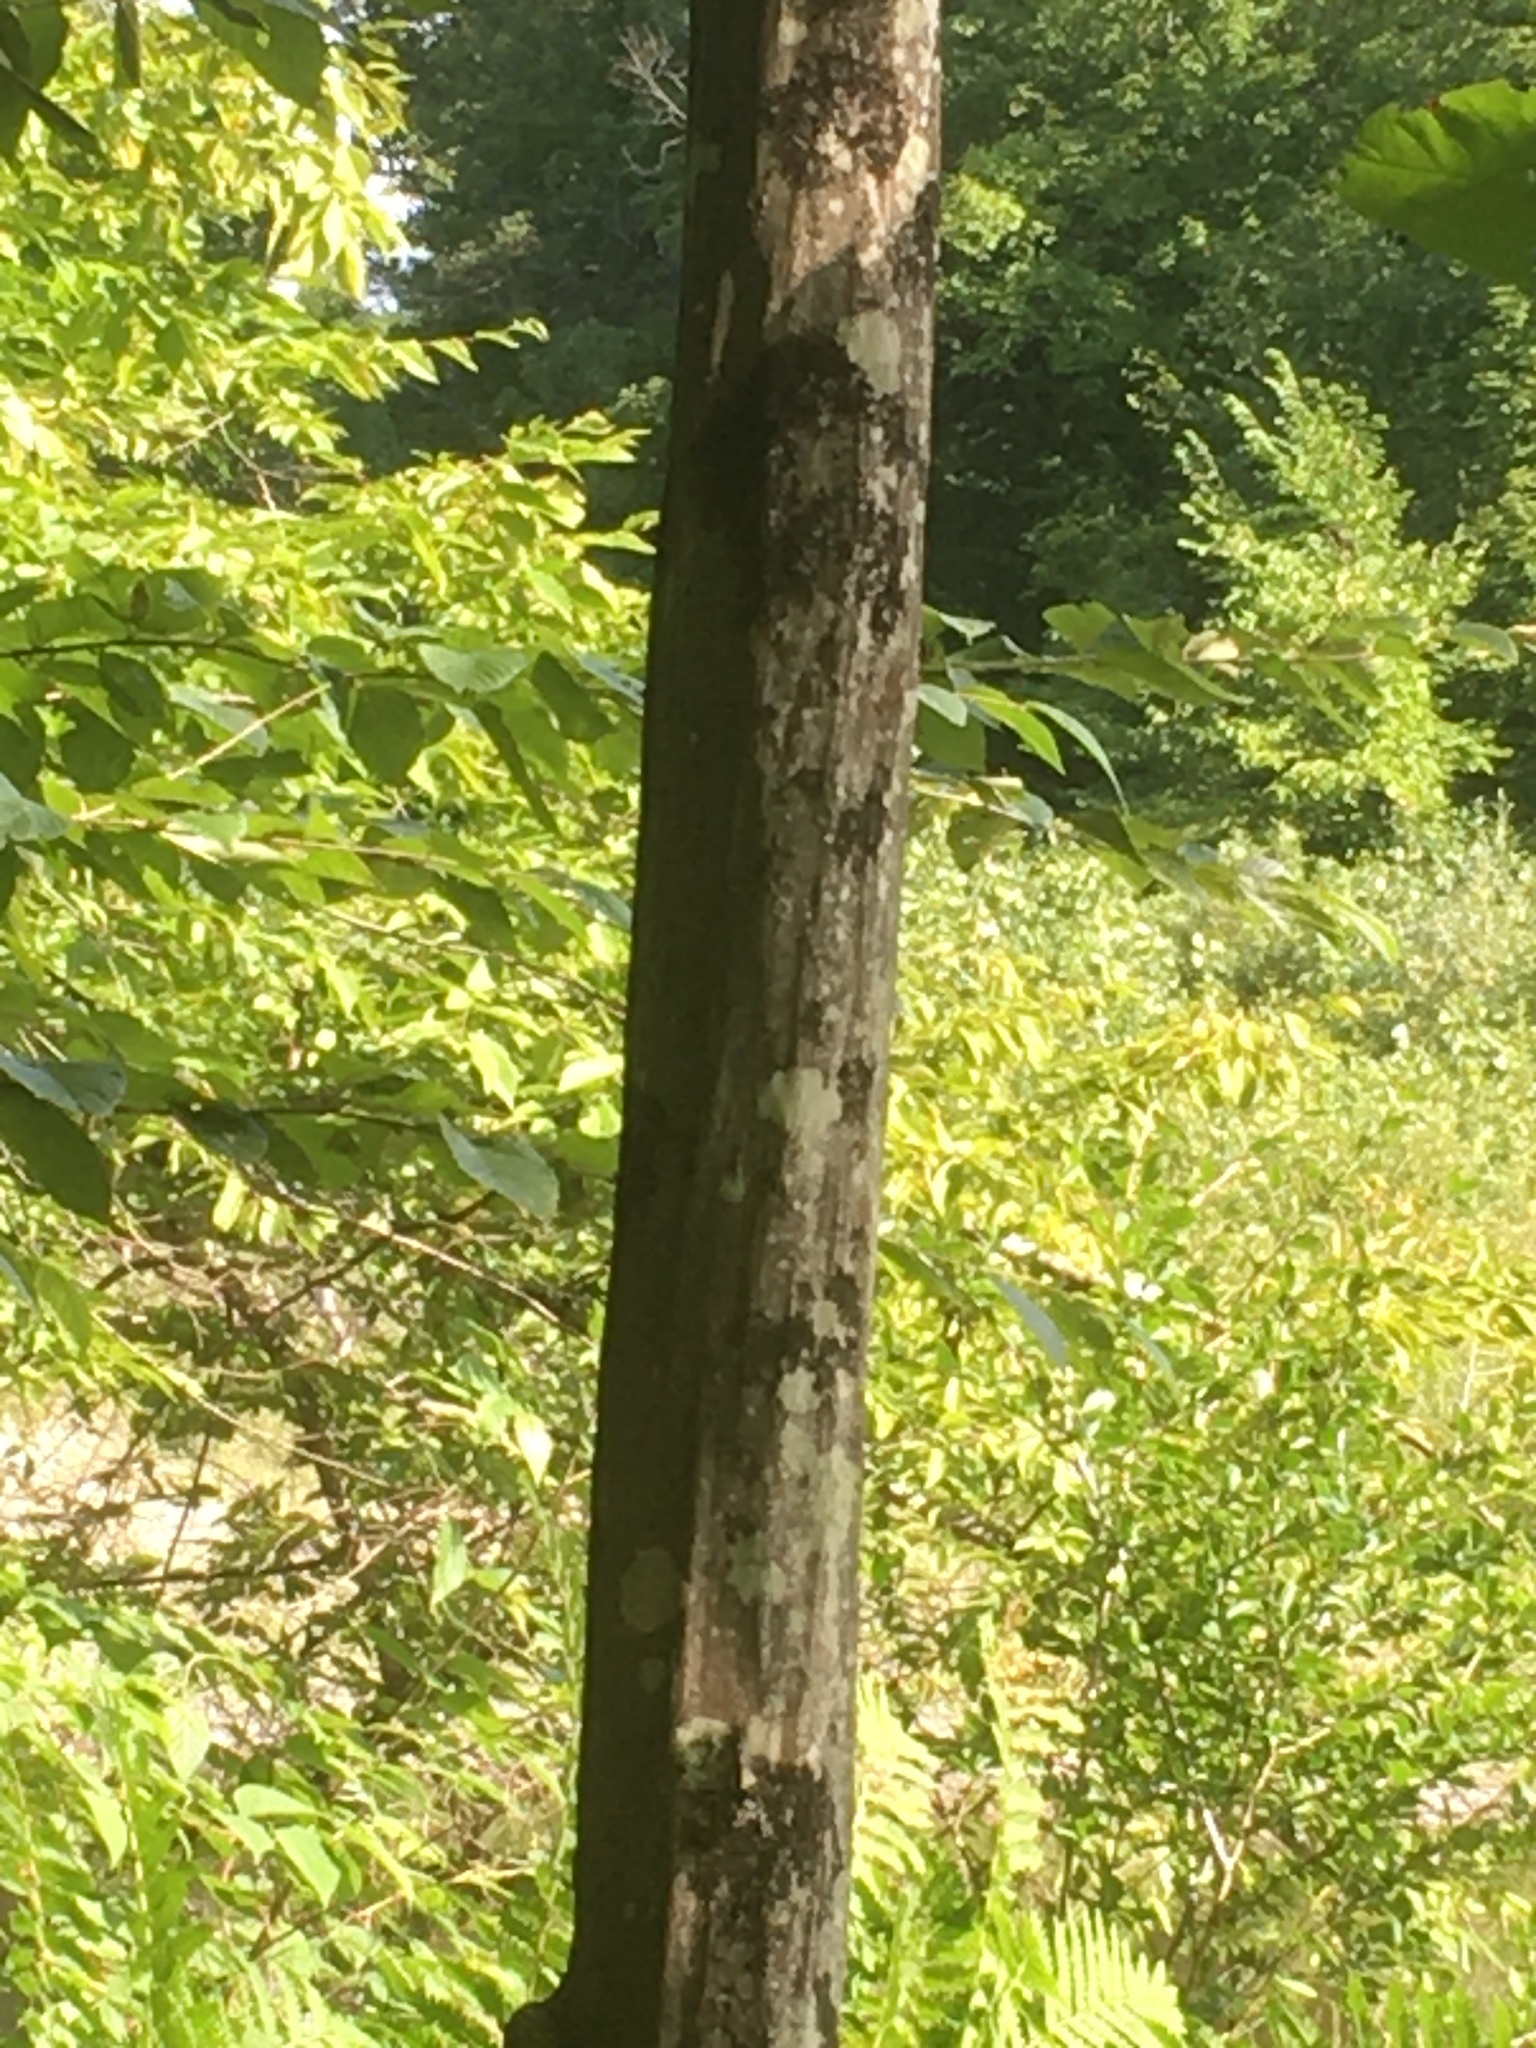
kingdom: Plantae
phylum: Tracheophyta
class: Magnoliopsida
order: Fagales
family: Betulaceae
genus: Carpinus
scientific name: Carpinus caroliniana
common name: American hornbeam
